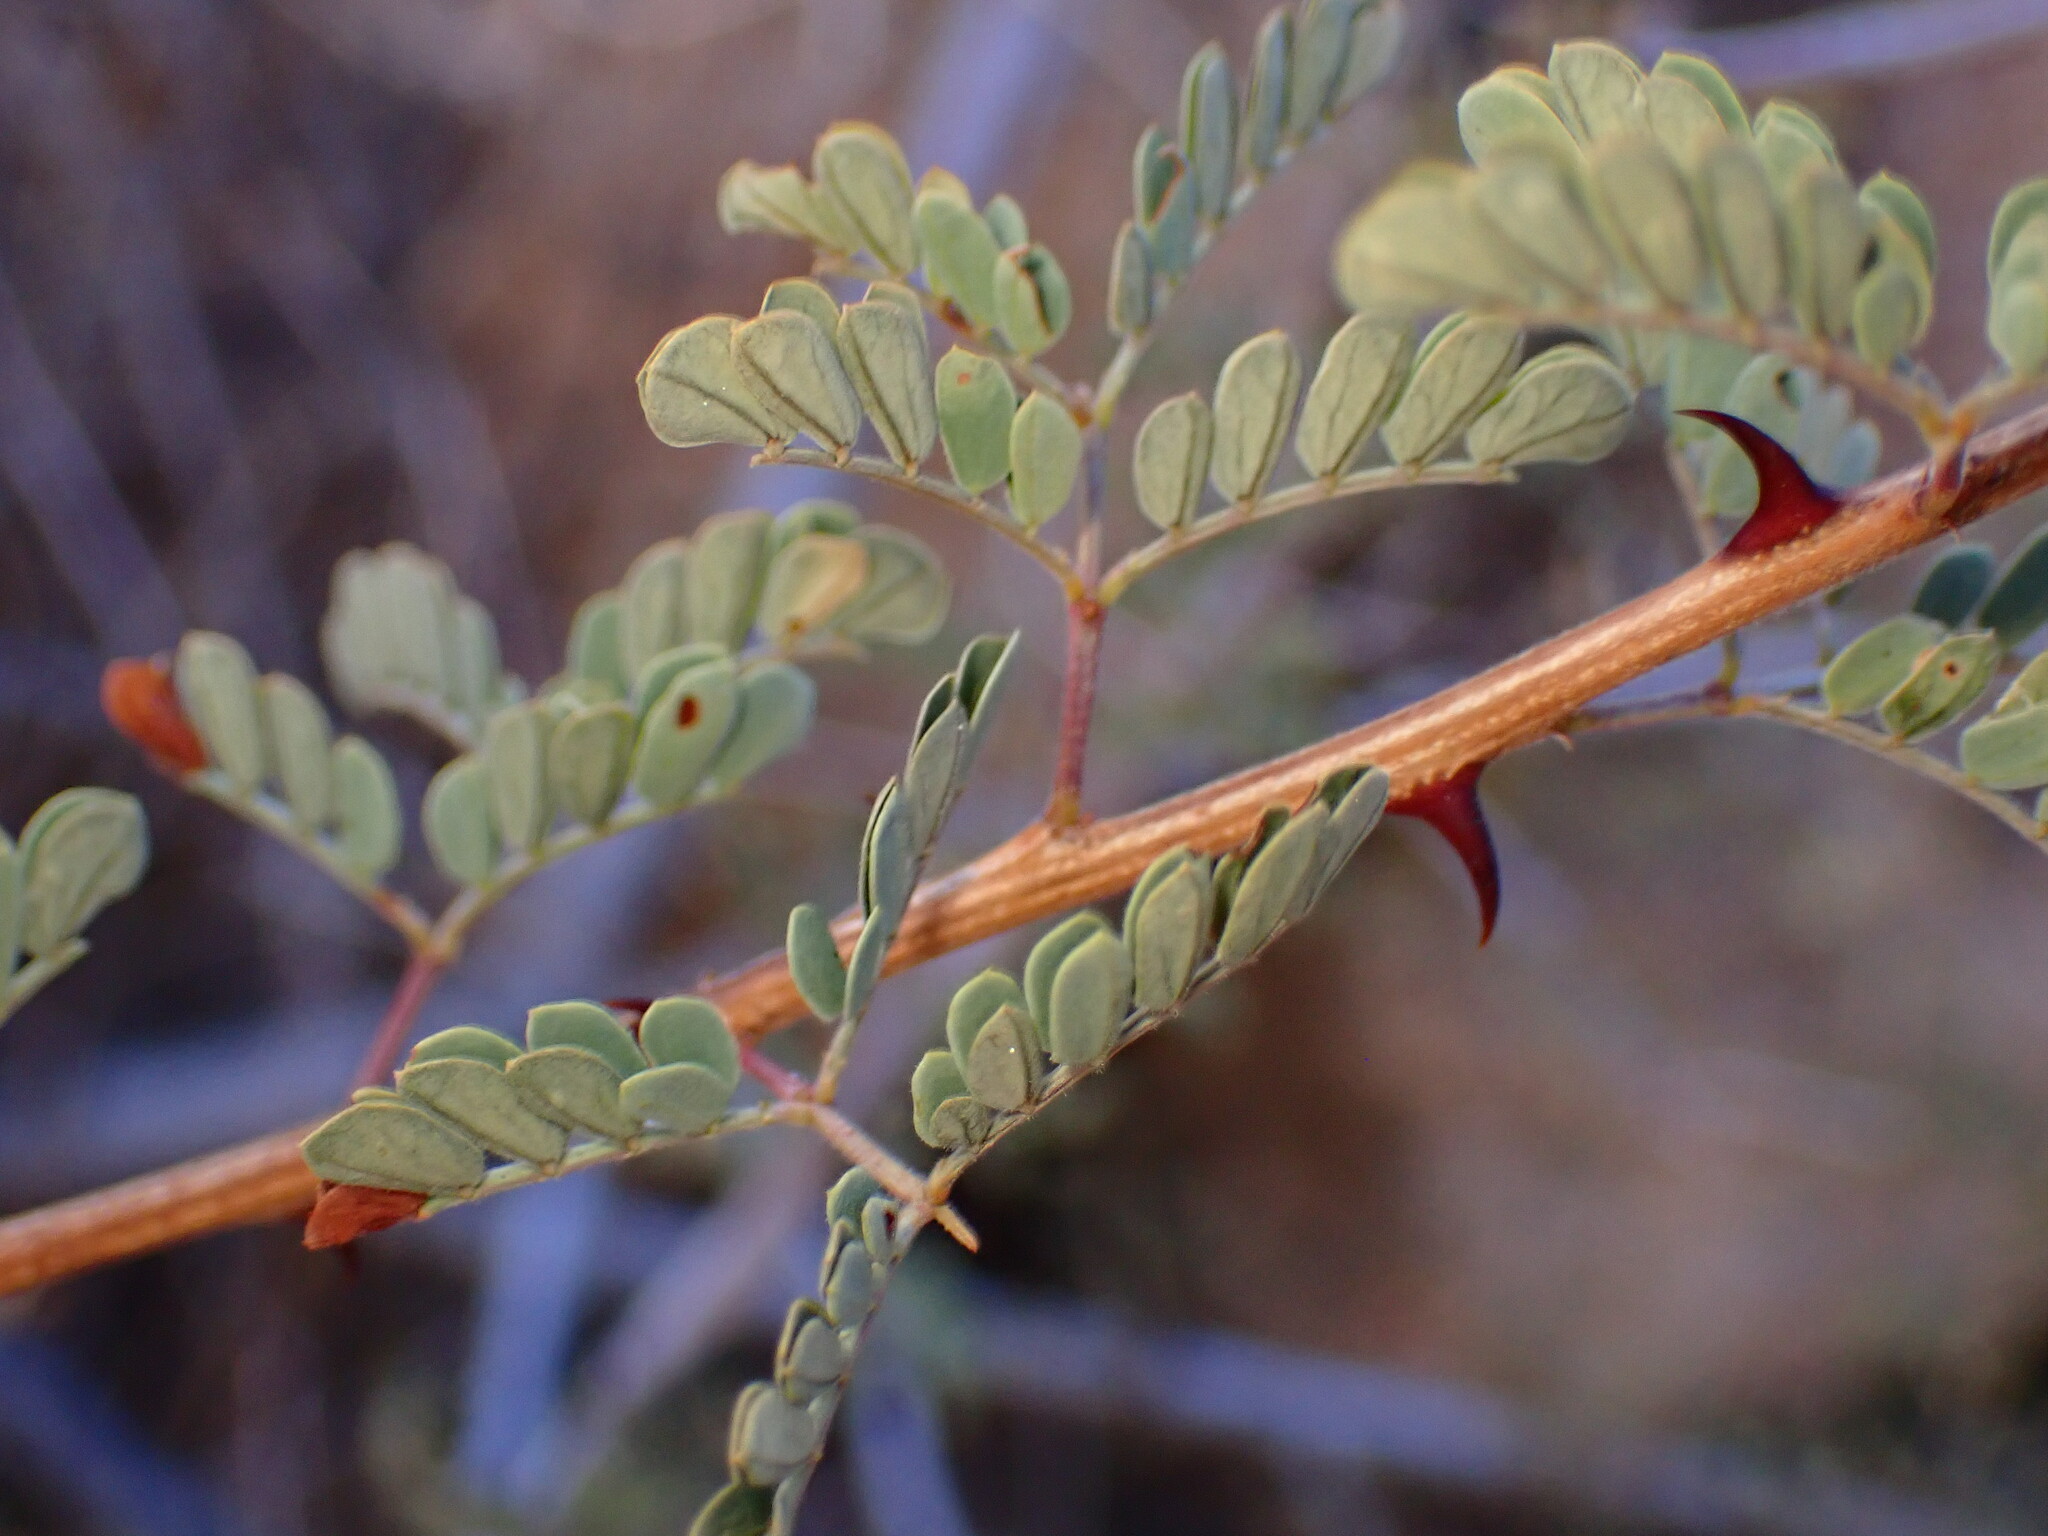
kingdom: Plantae
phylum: Tracheophyta
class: Magnoliopsida
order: Fabales
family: Fabaceae
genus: Senegalia
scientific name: Senegalia greggii
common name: Texas-mimosa
